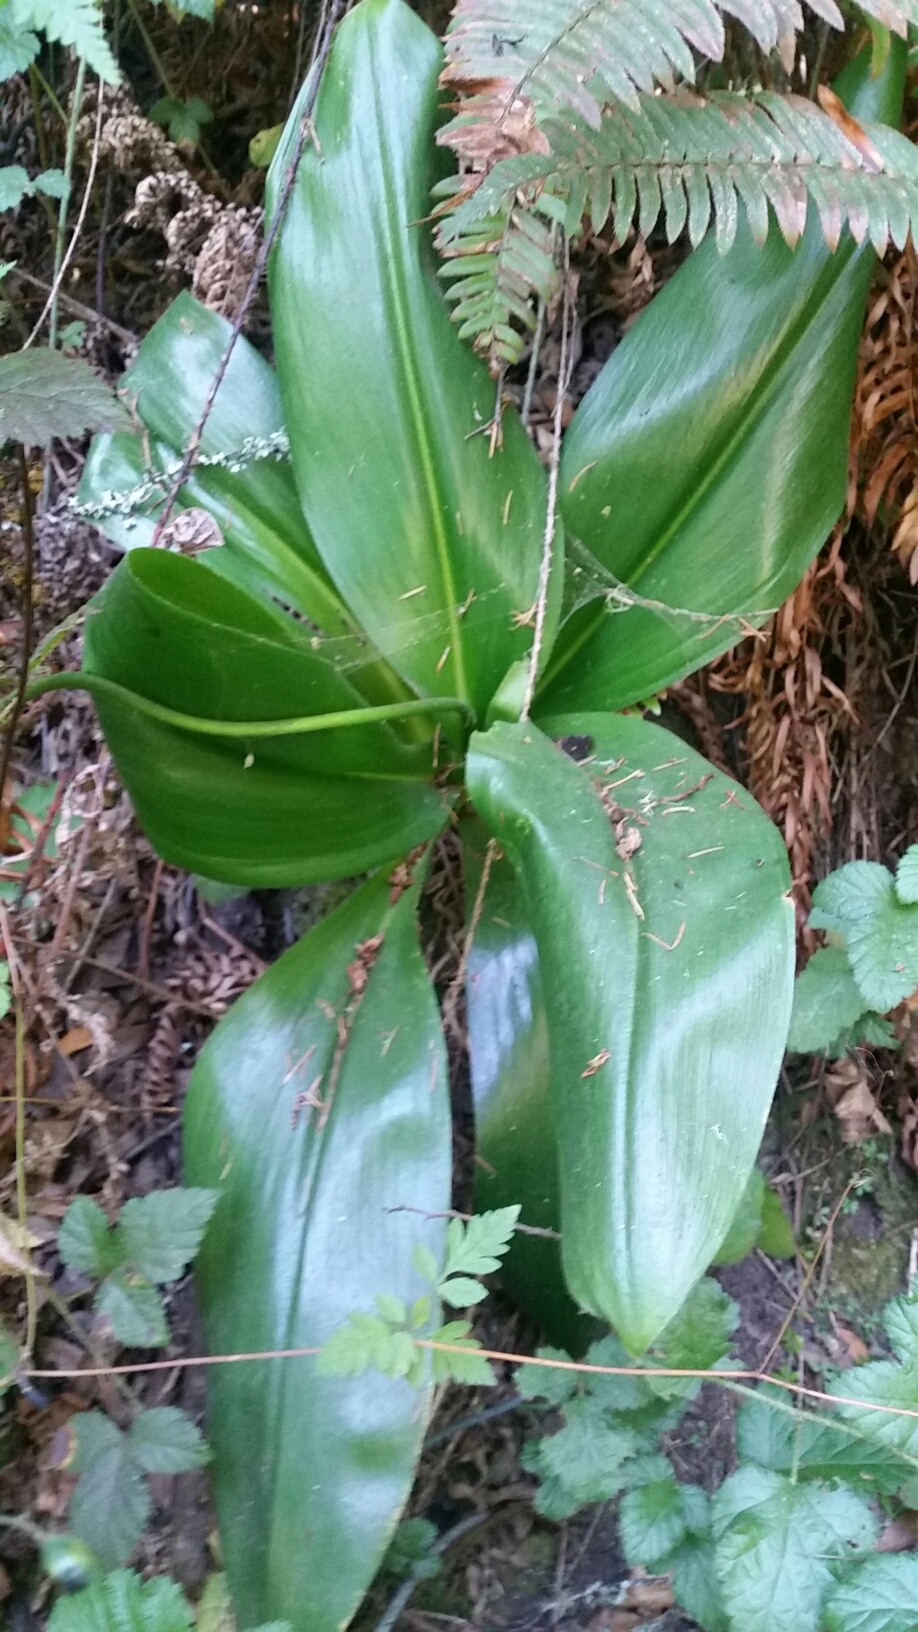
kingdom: Plantae
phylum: Tracheophyta
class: Liliopsida
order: Liliales
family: Liliaceae
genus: Clintonia
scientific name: Clintonia andrewsiana
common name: Red clintonia
